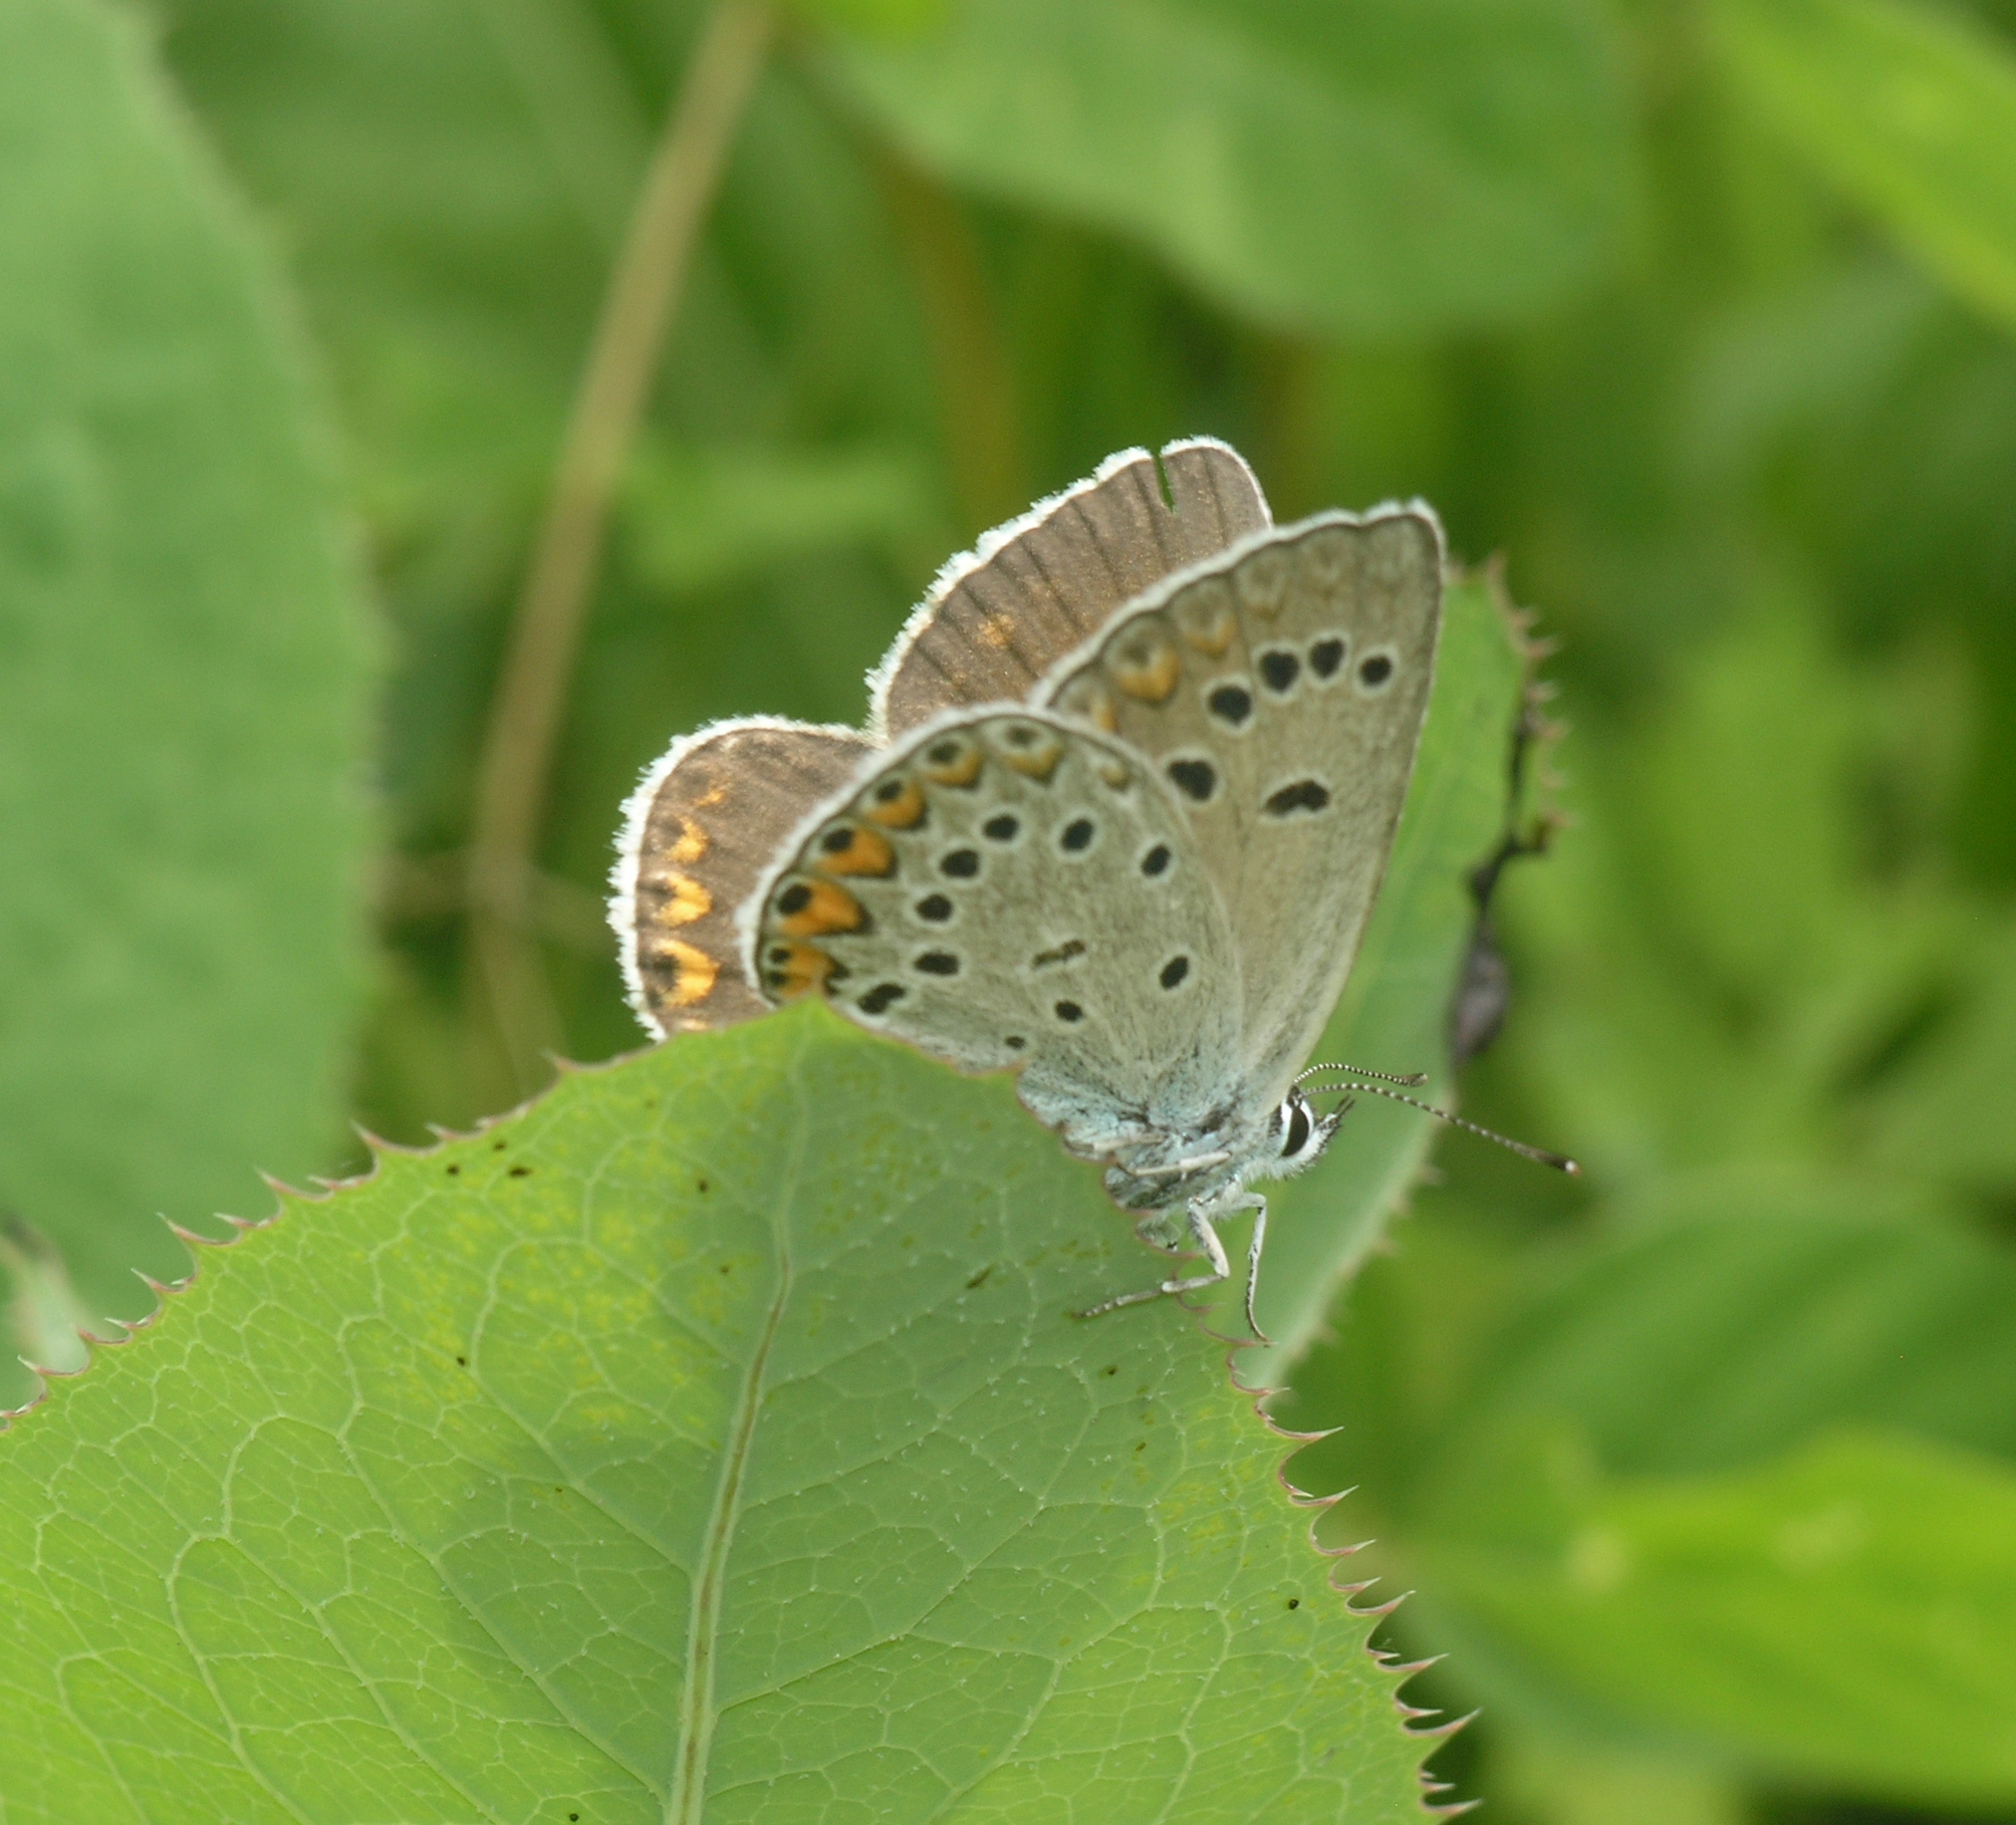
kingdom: Animalia
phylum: Arthropoda
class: Insecta
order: Lepidoptera
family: Lycaenidae
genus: Plebejus
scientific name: Plebejus amanda
